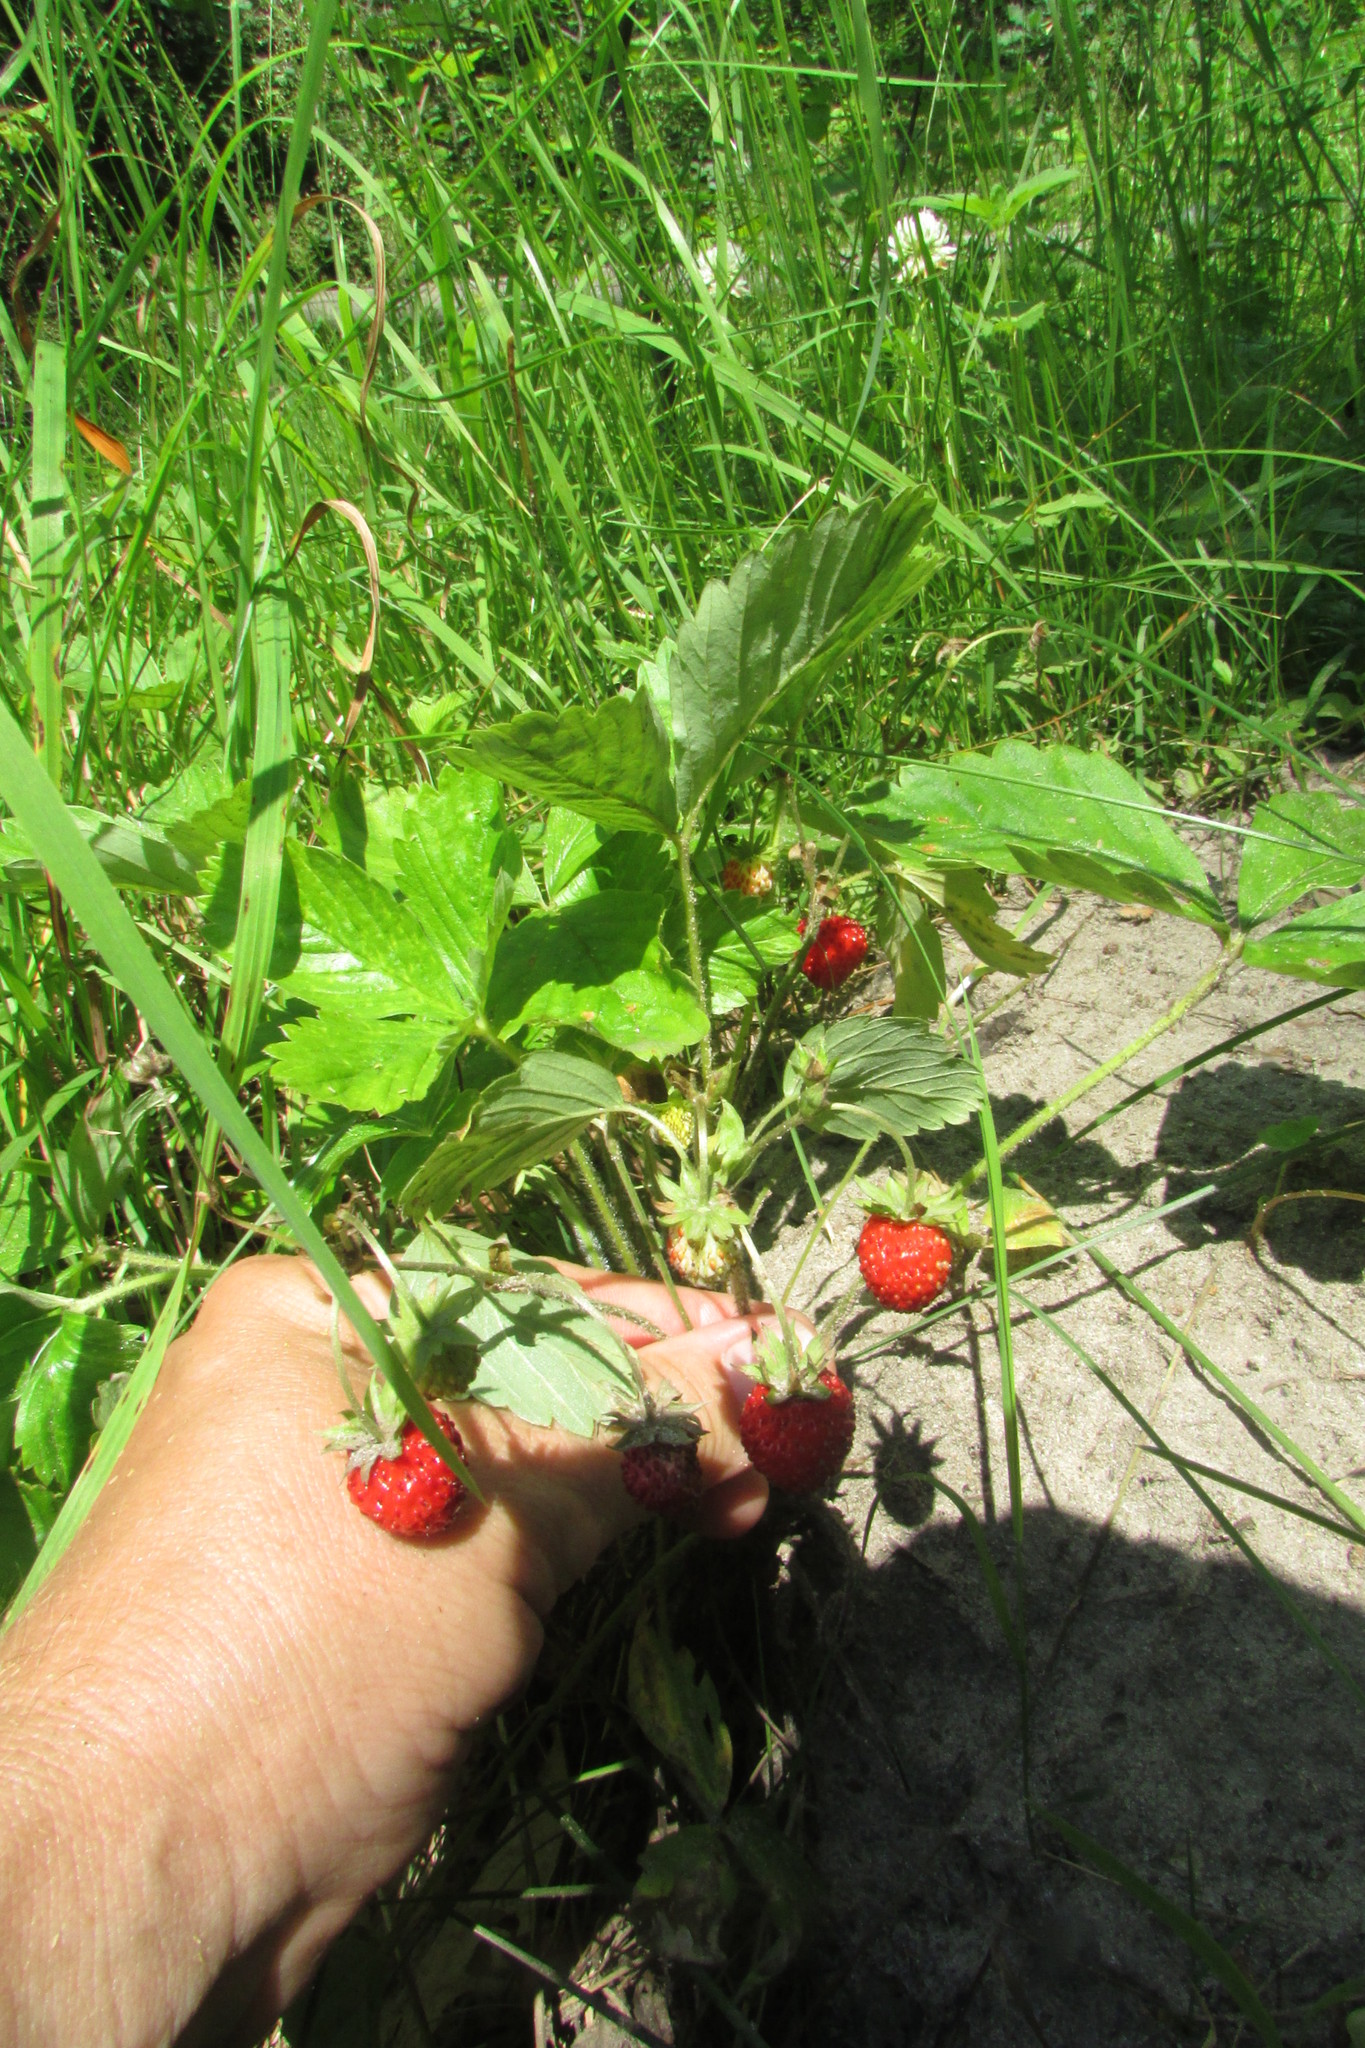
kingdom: Plantae
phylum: Tracheophyta
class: Magnoliopsida
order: Rosales
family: Rosaceae
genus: Fragaria
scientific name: Fragaria vesca
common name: Wild strawberry
